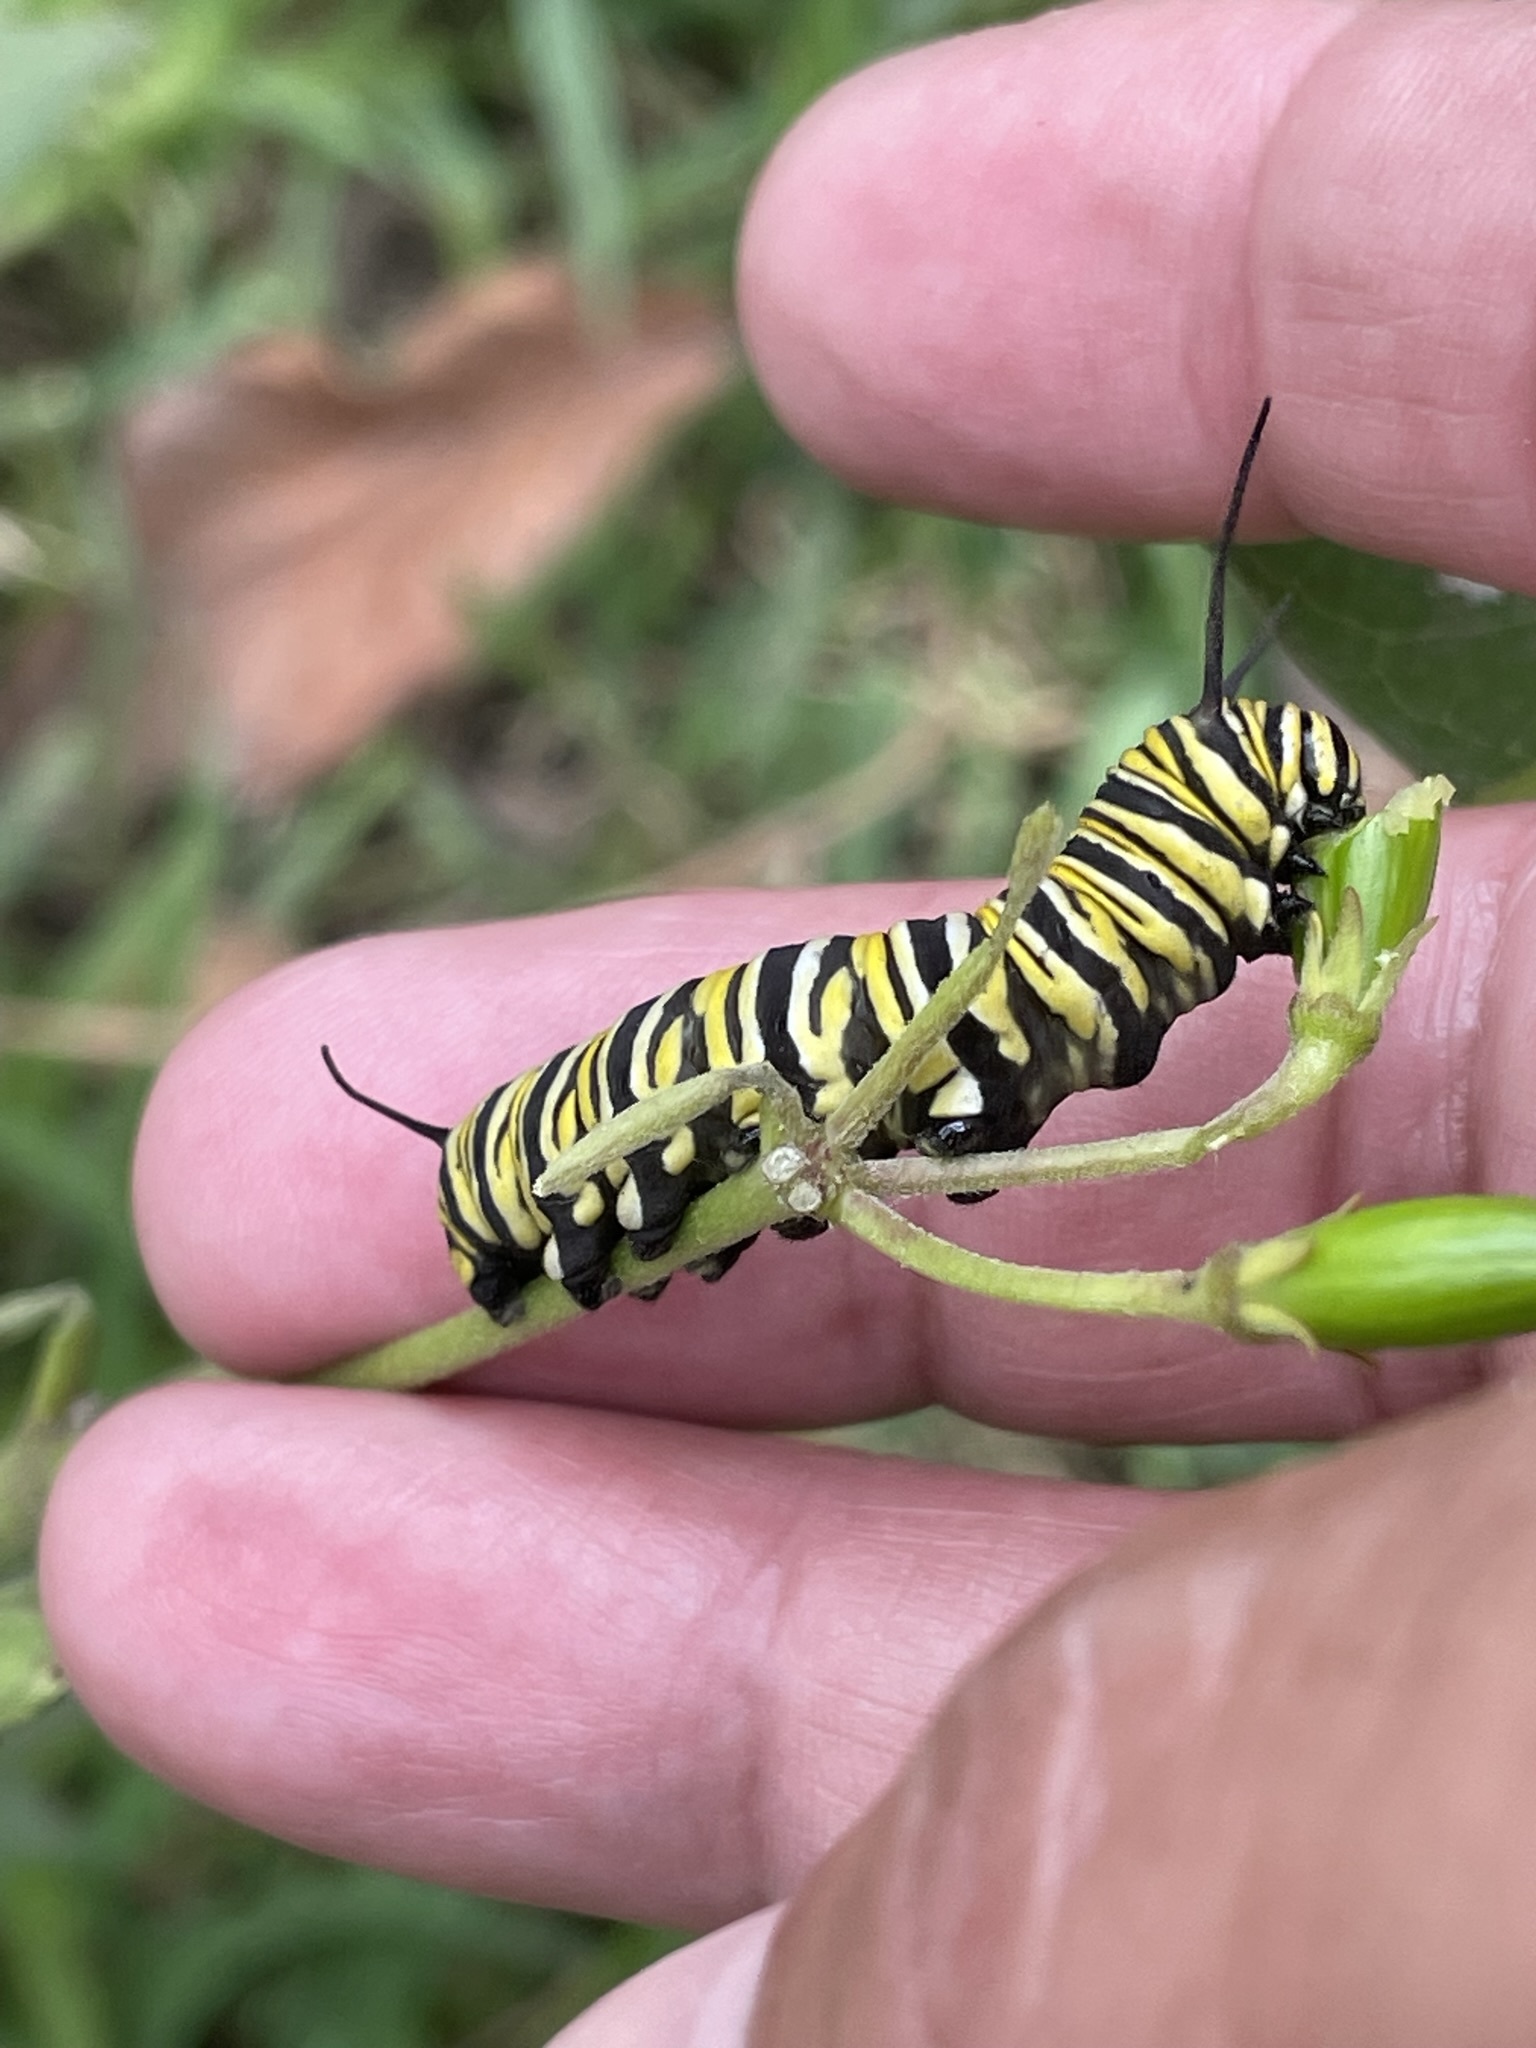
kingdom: Animalia
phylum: Arthropoda
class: Insecta
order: Lepidoptera
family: Nymphalidae
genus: Danaus
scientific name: Danaus plexippus
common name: Monarch
